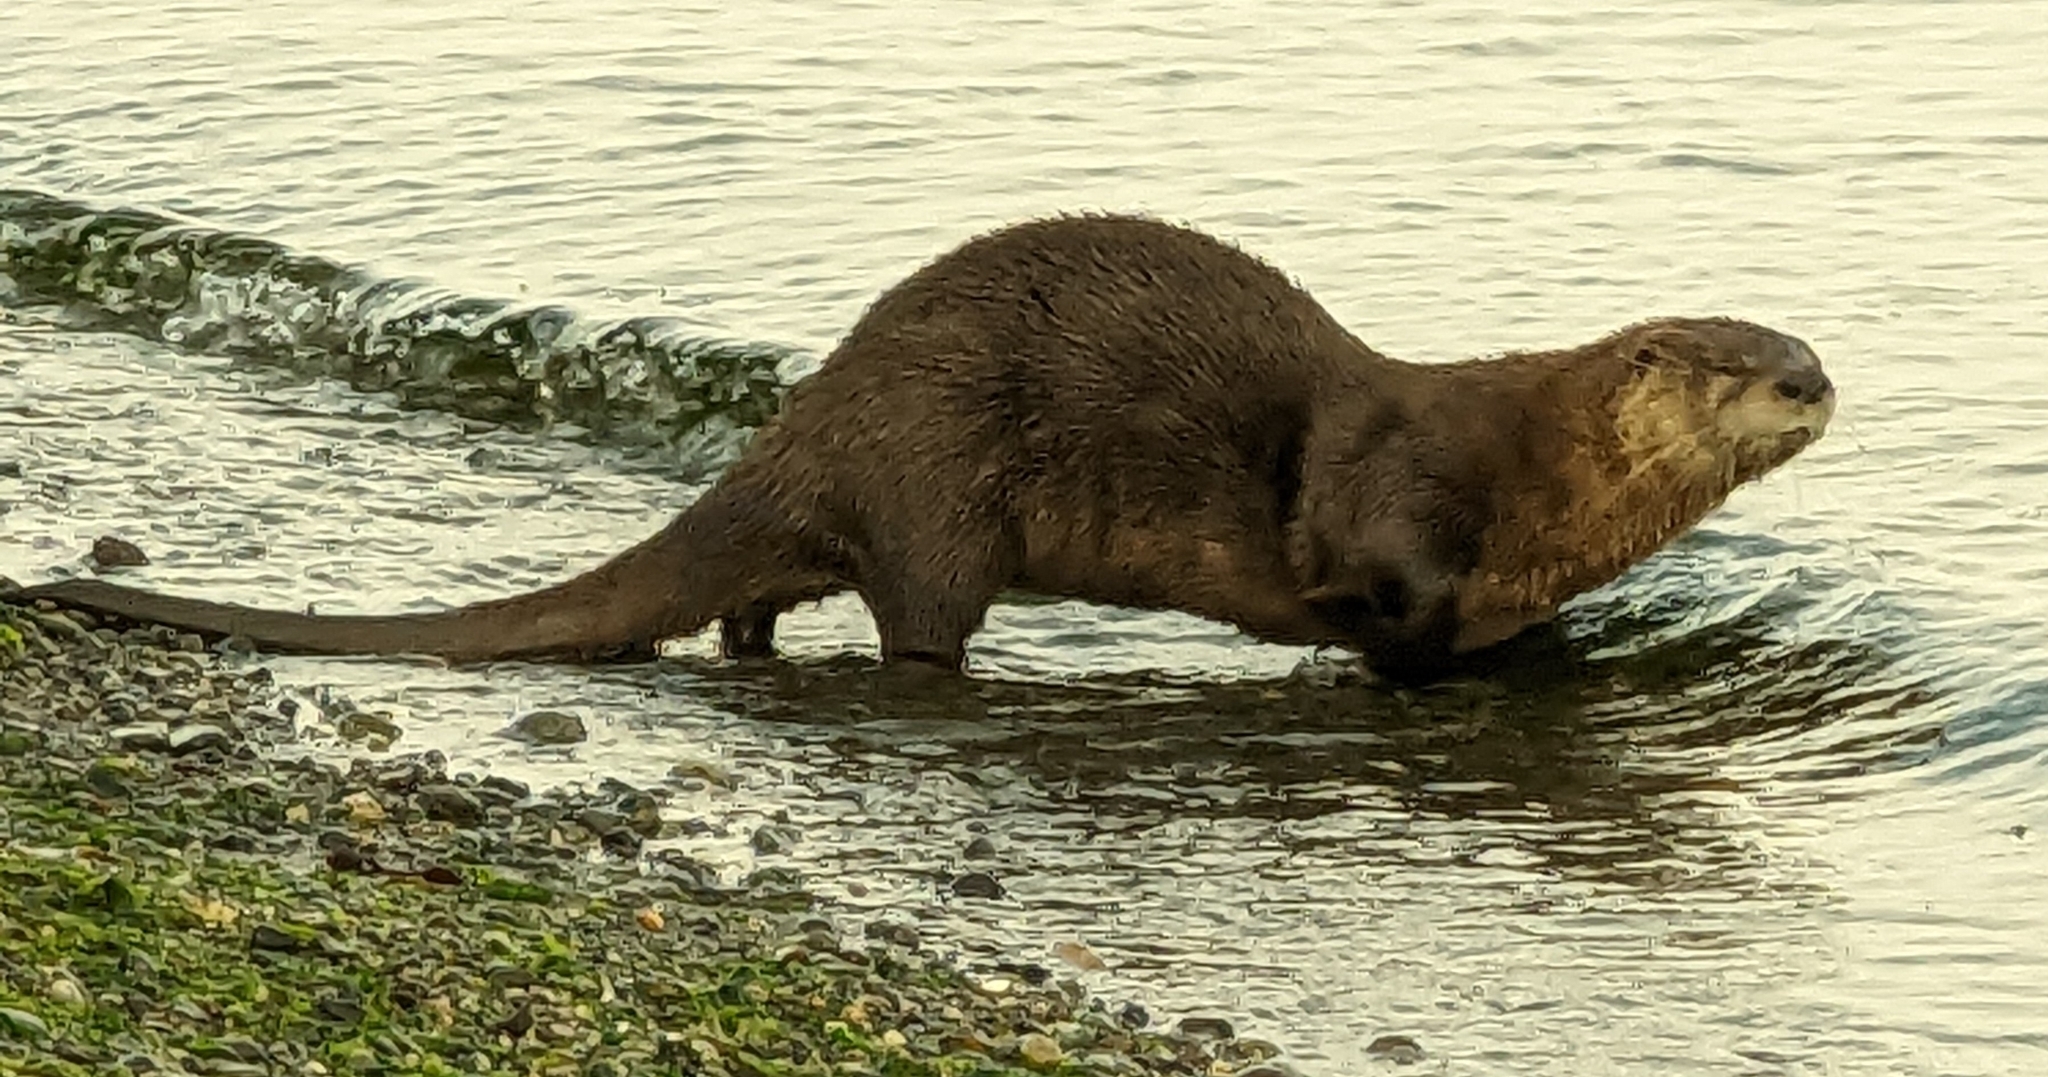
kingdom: Animalia
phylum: Chordata
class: Mammalia
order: Carnivora
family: Mustelidae
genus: Lontra
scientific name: Lontra canadensis
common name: North american river otter
